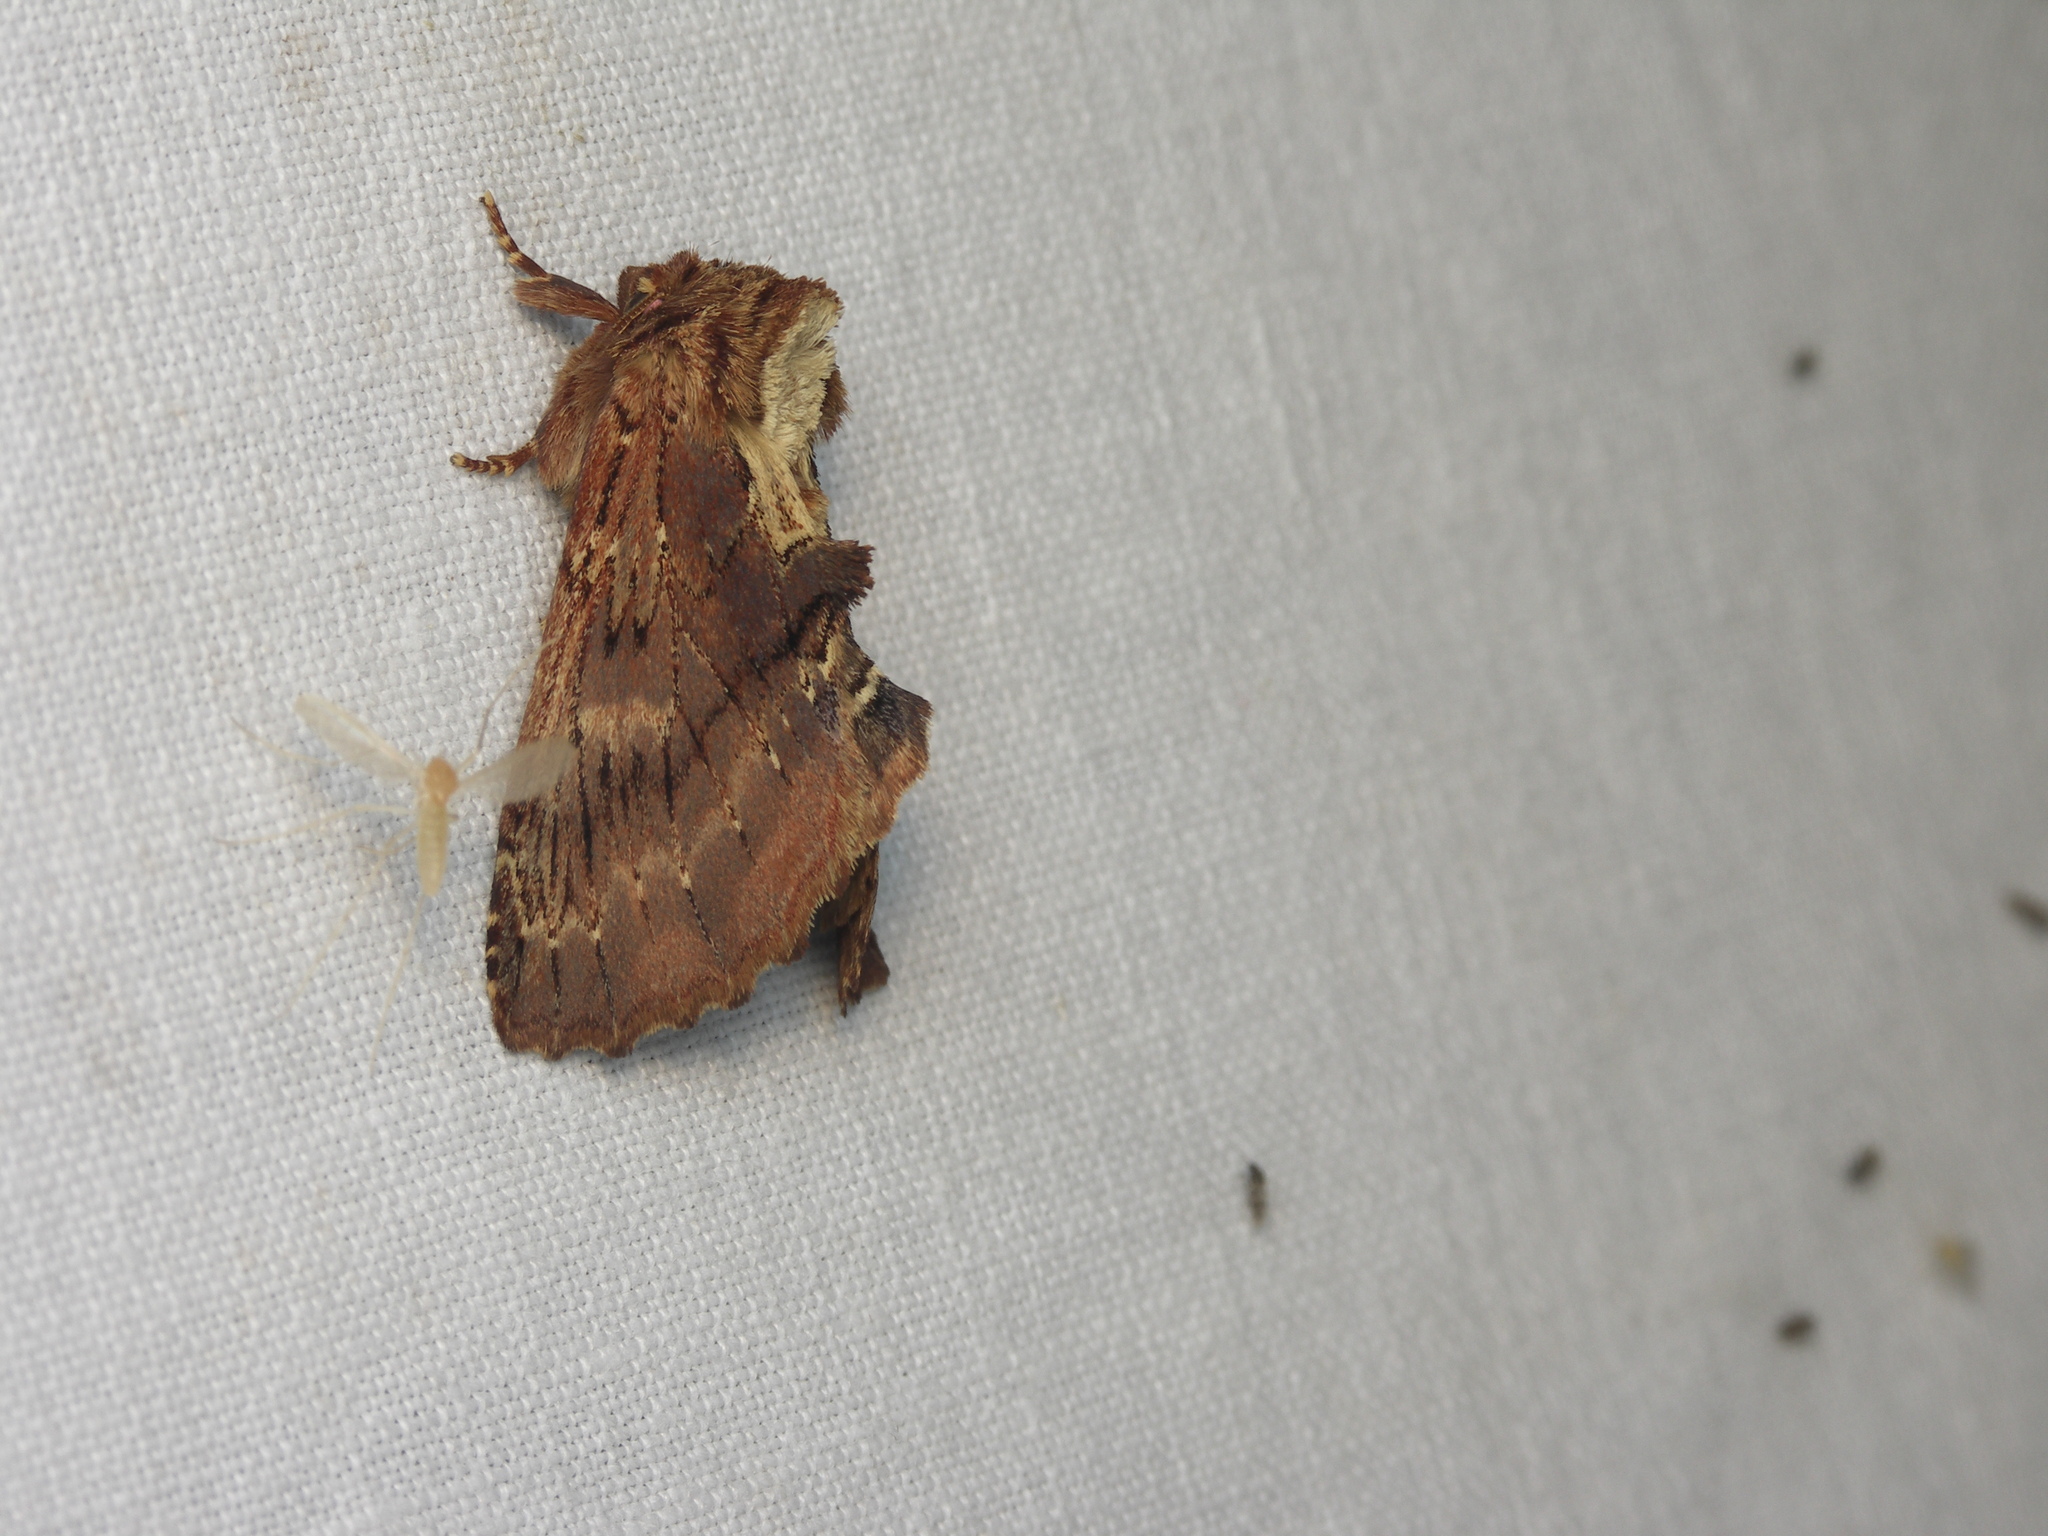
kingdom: Animalia
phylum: Arthropoda
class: Insecta
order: Lepidoptera
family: Notodontidae
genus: Ptilodon
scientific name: Ptilodon capucina
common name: Coxcomb prominent
